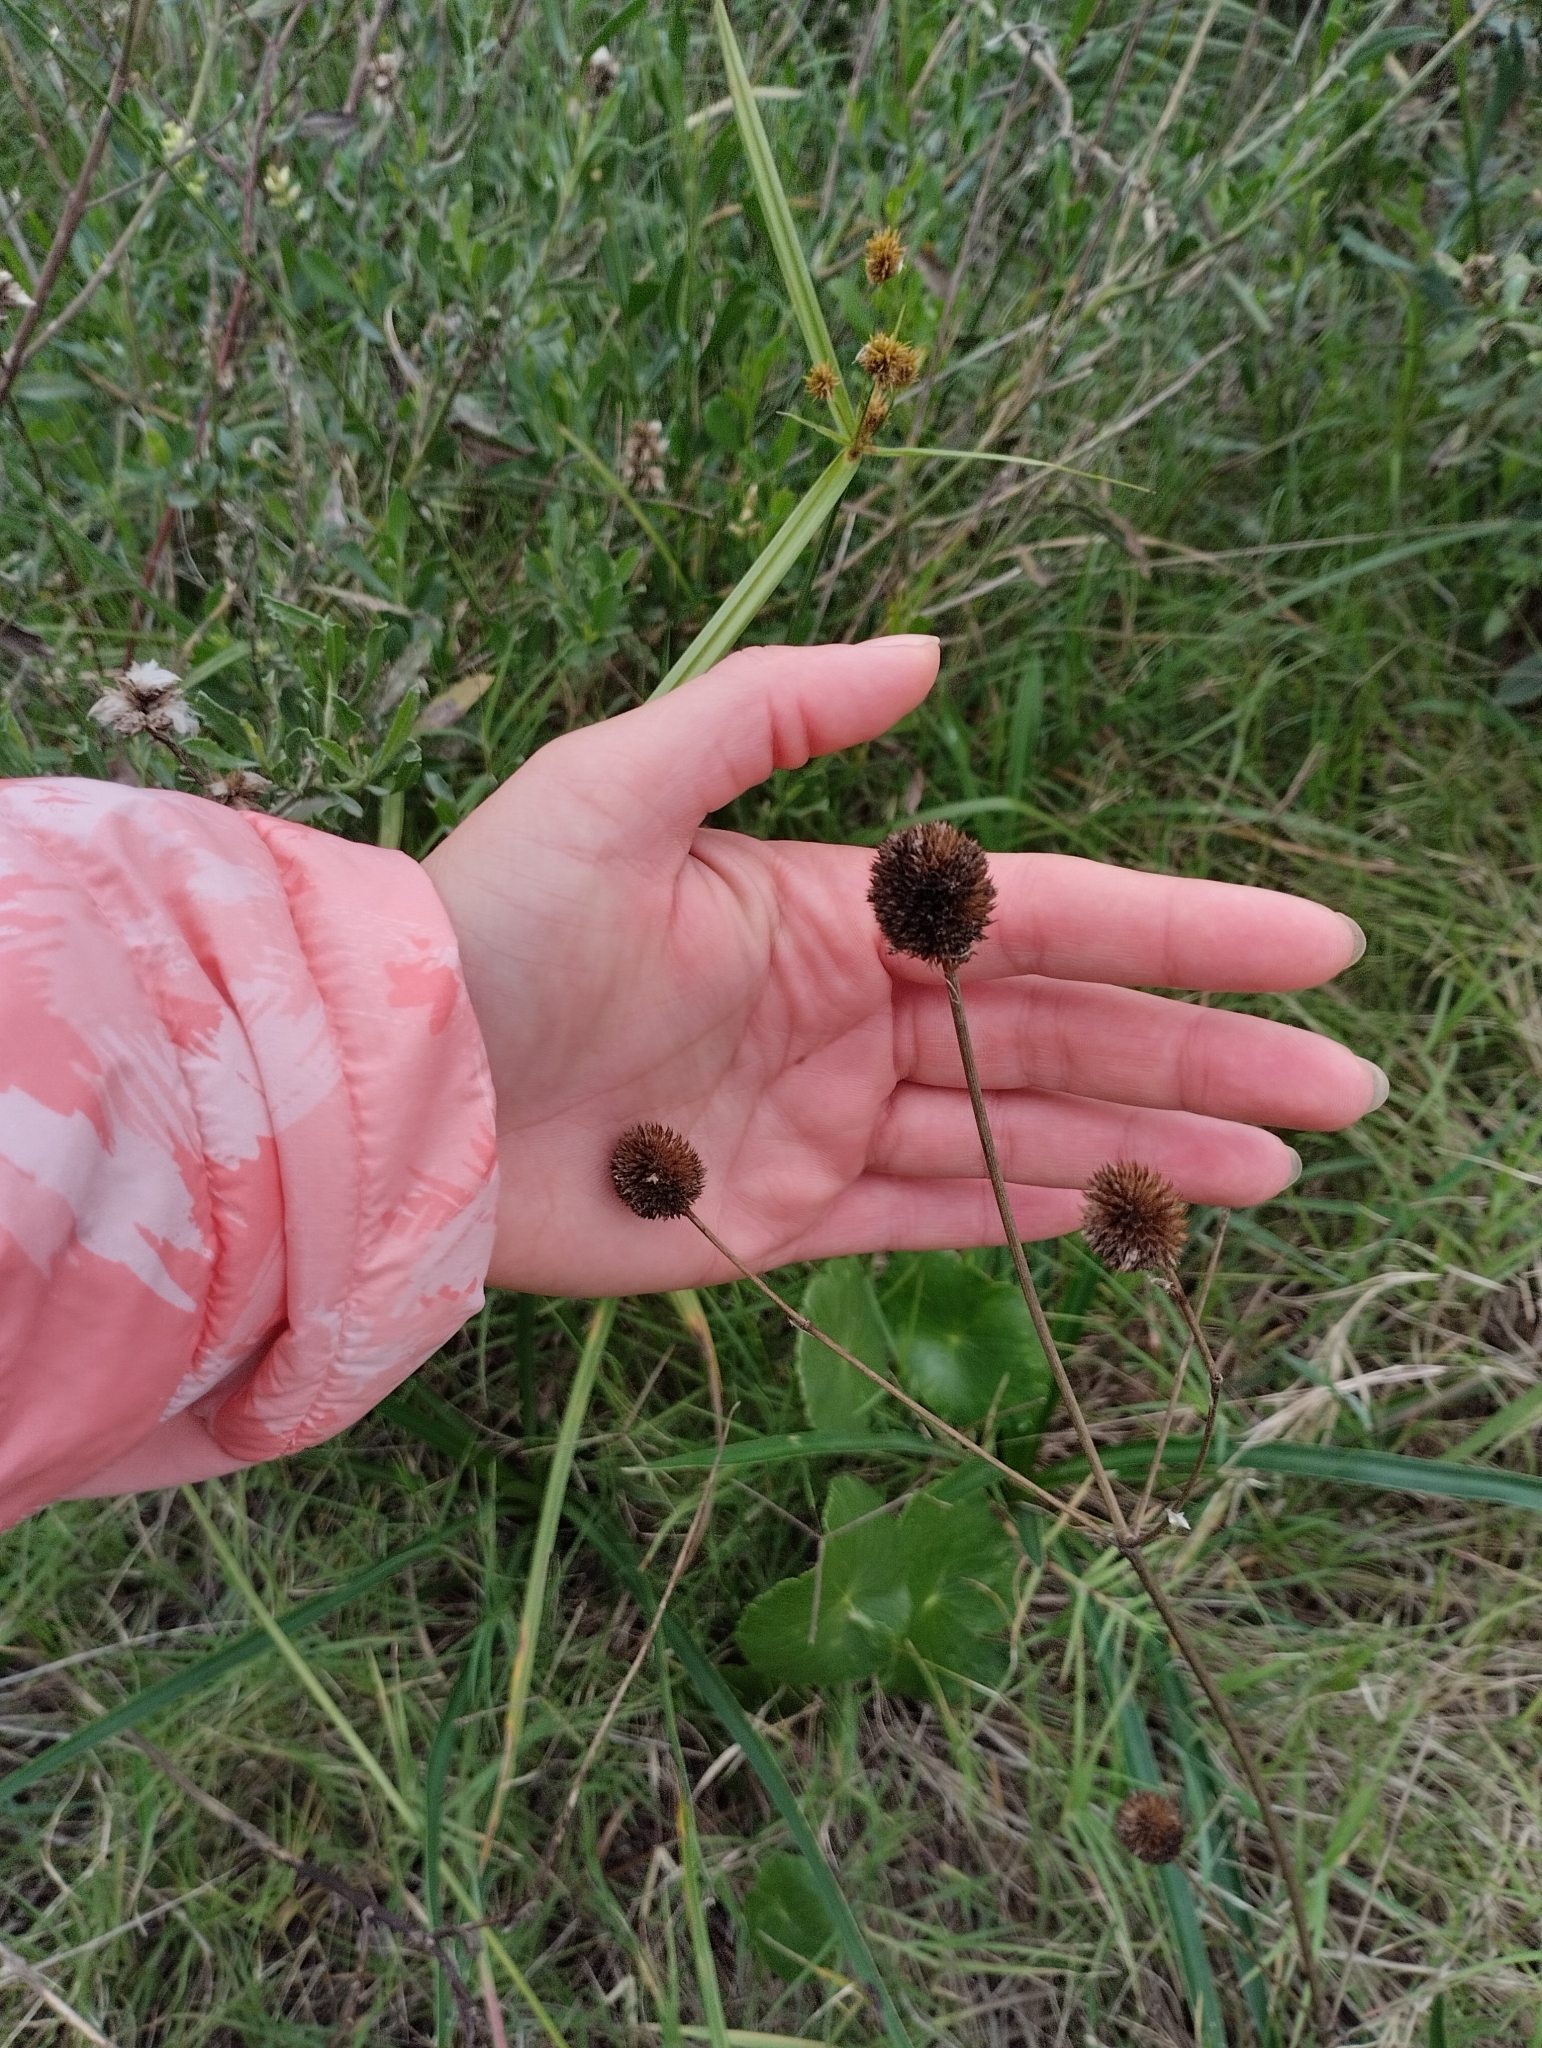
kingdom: Plantae
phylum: Tracheophyta
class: Magnoliopsida
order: Apiales
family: Apiaceae
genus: Eryngium
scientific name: Eryngium sanguisorba
